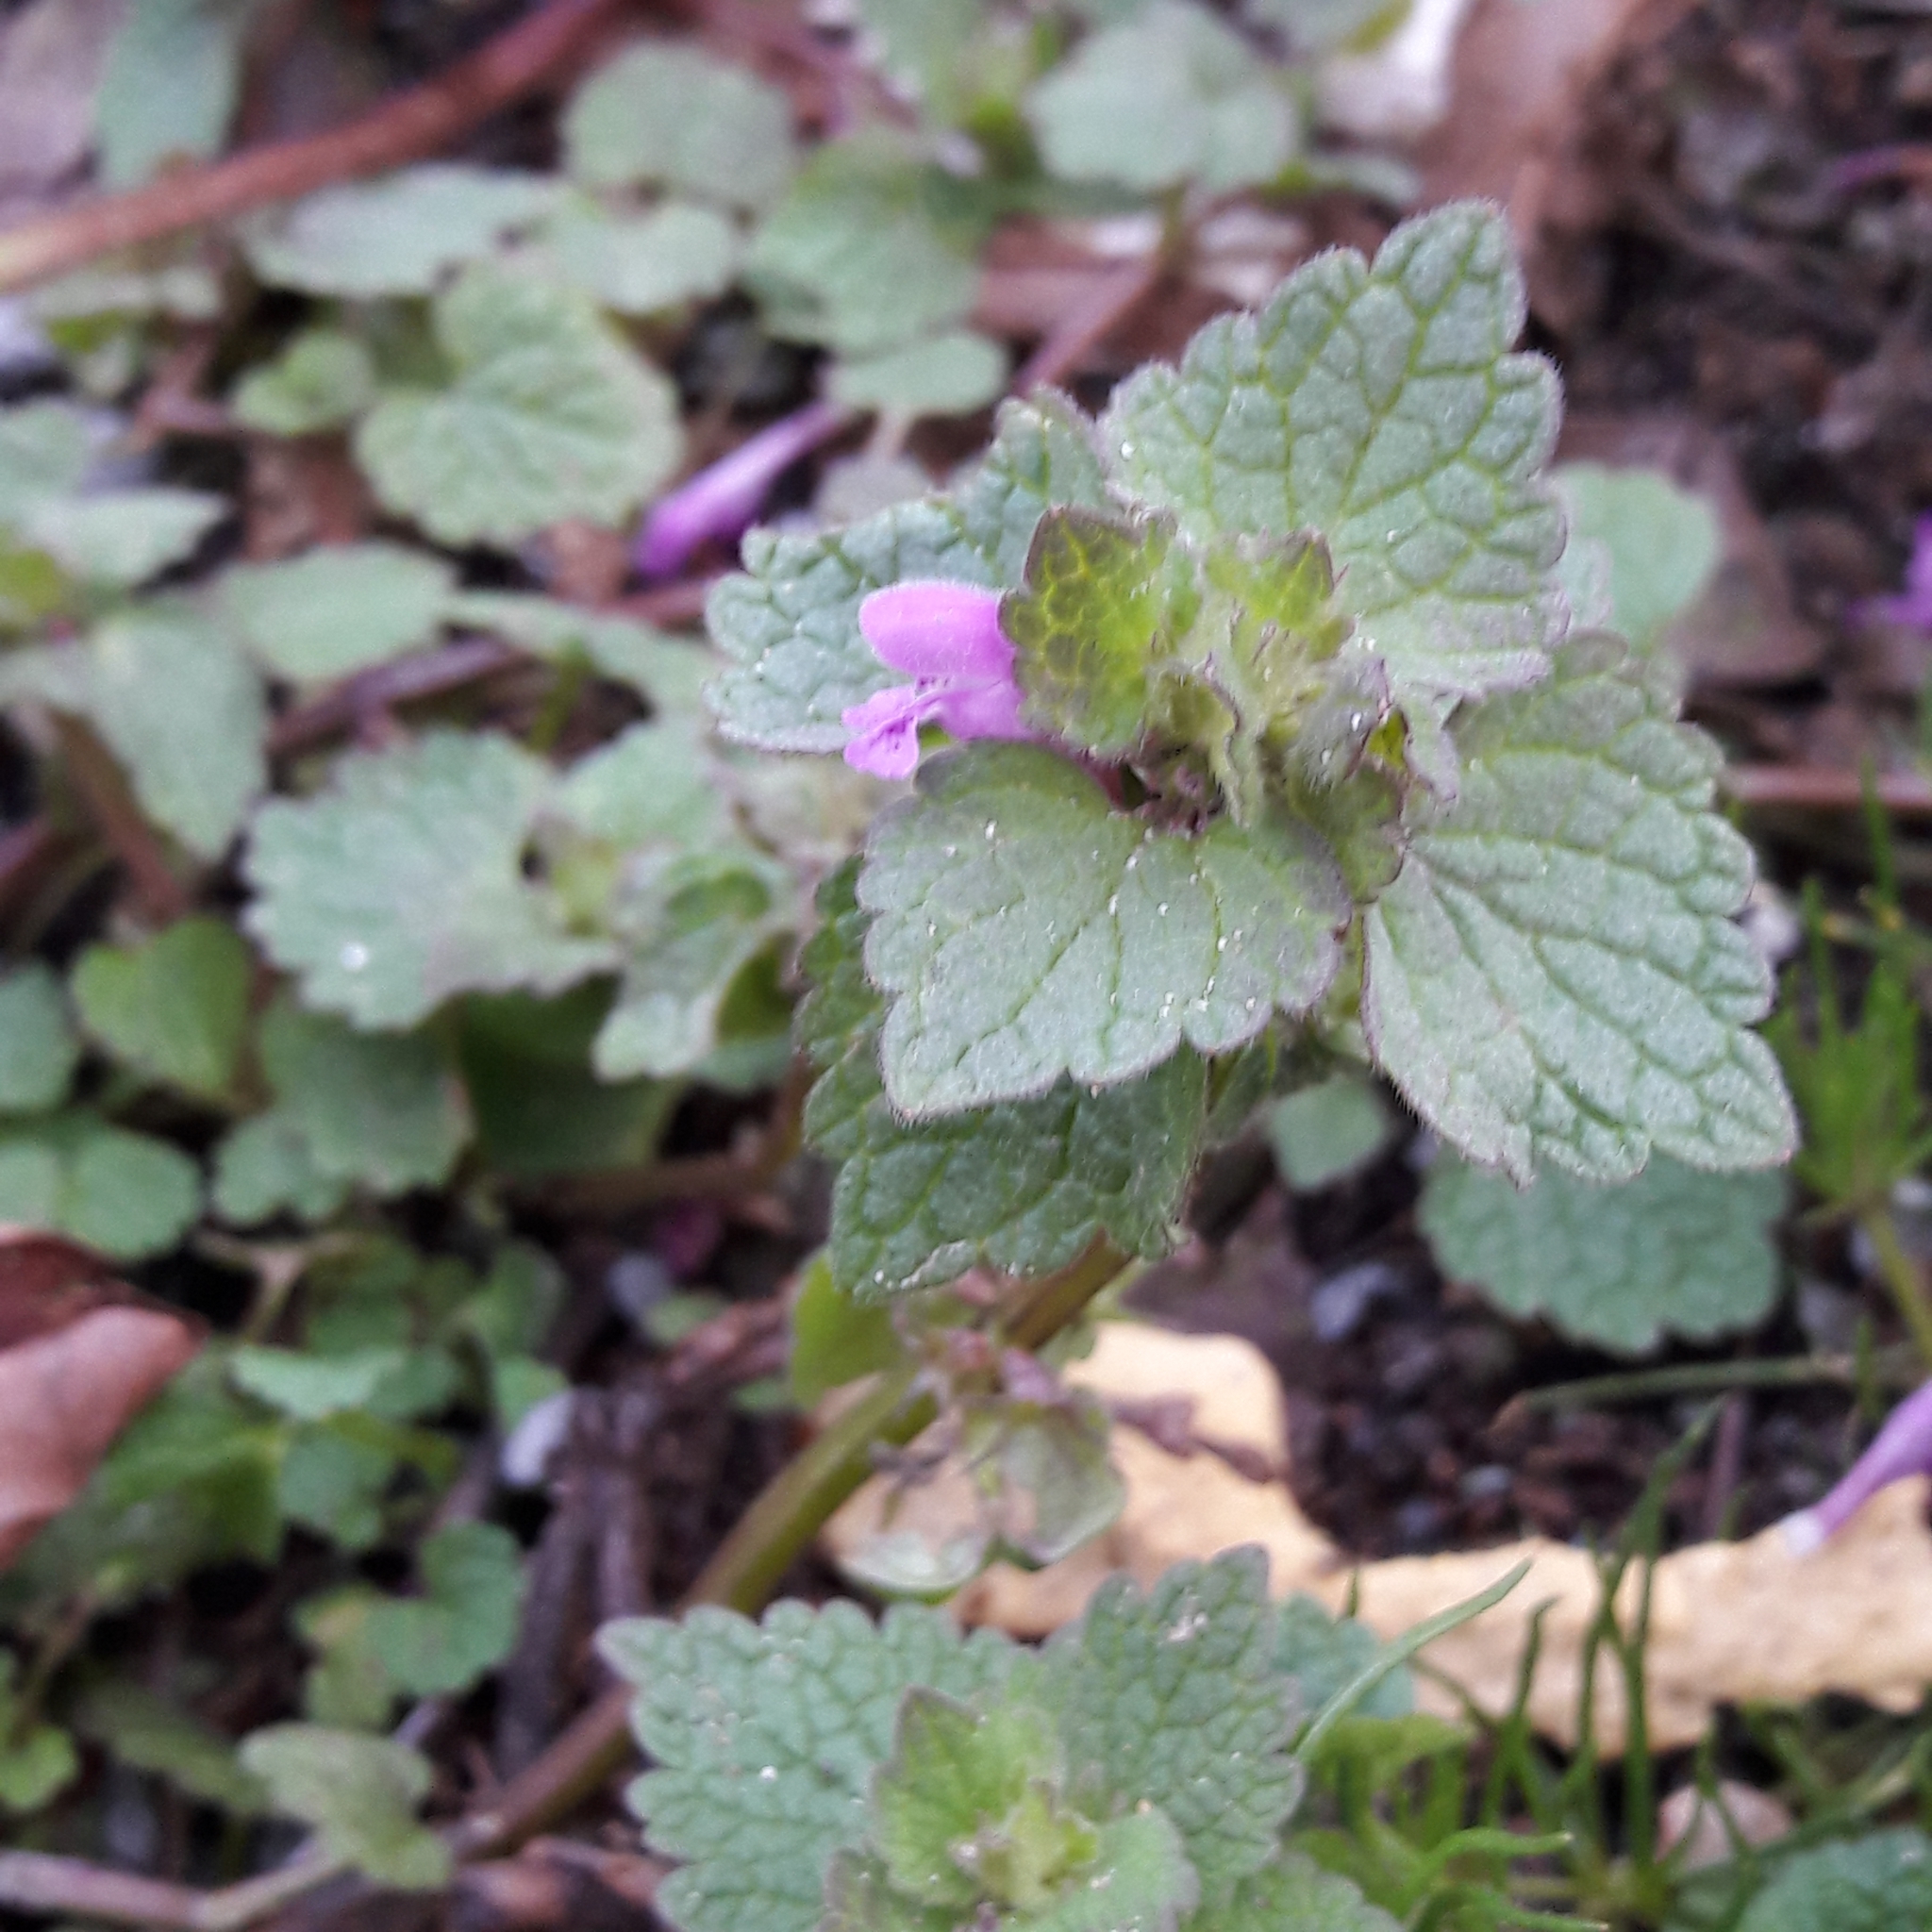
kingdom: Plantae
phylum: Tracheophyta
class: Magnoliopsida
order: Lamiales
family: Lamiaceae
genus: Lamium
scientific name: Lamium purpureum
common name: Red dead-nettle
